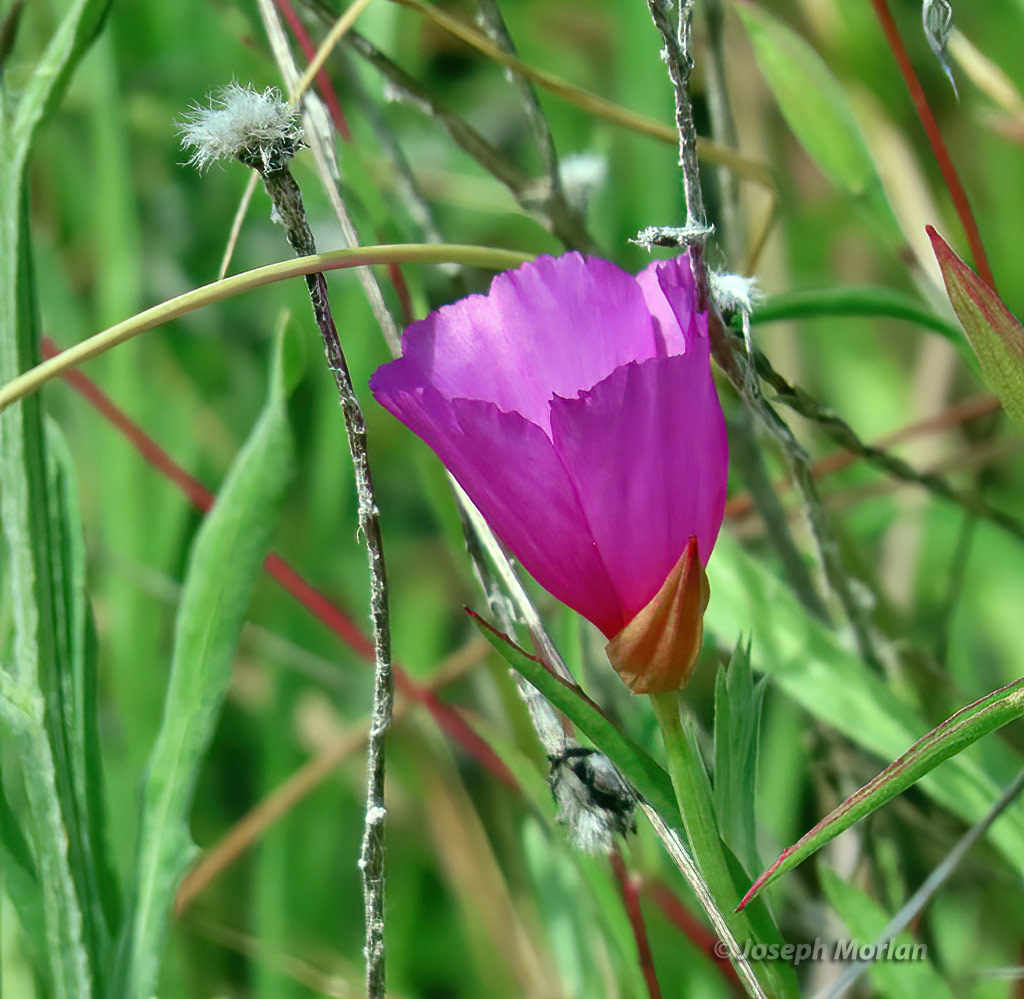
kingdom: Plantae
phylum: Tracheophyta
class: Magnoliopsida
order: Myrtales
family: Onagraceae
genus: Clarkia
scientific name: Clarkia rubicunda
